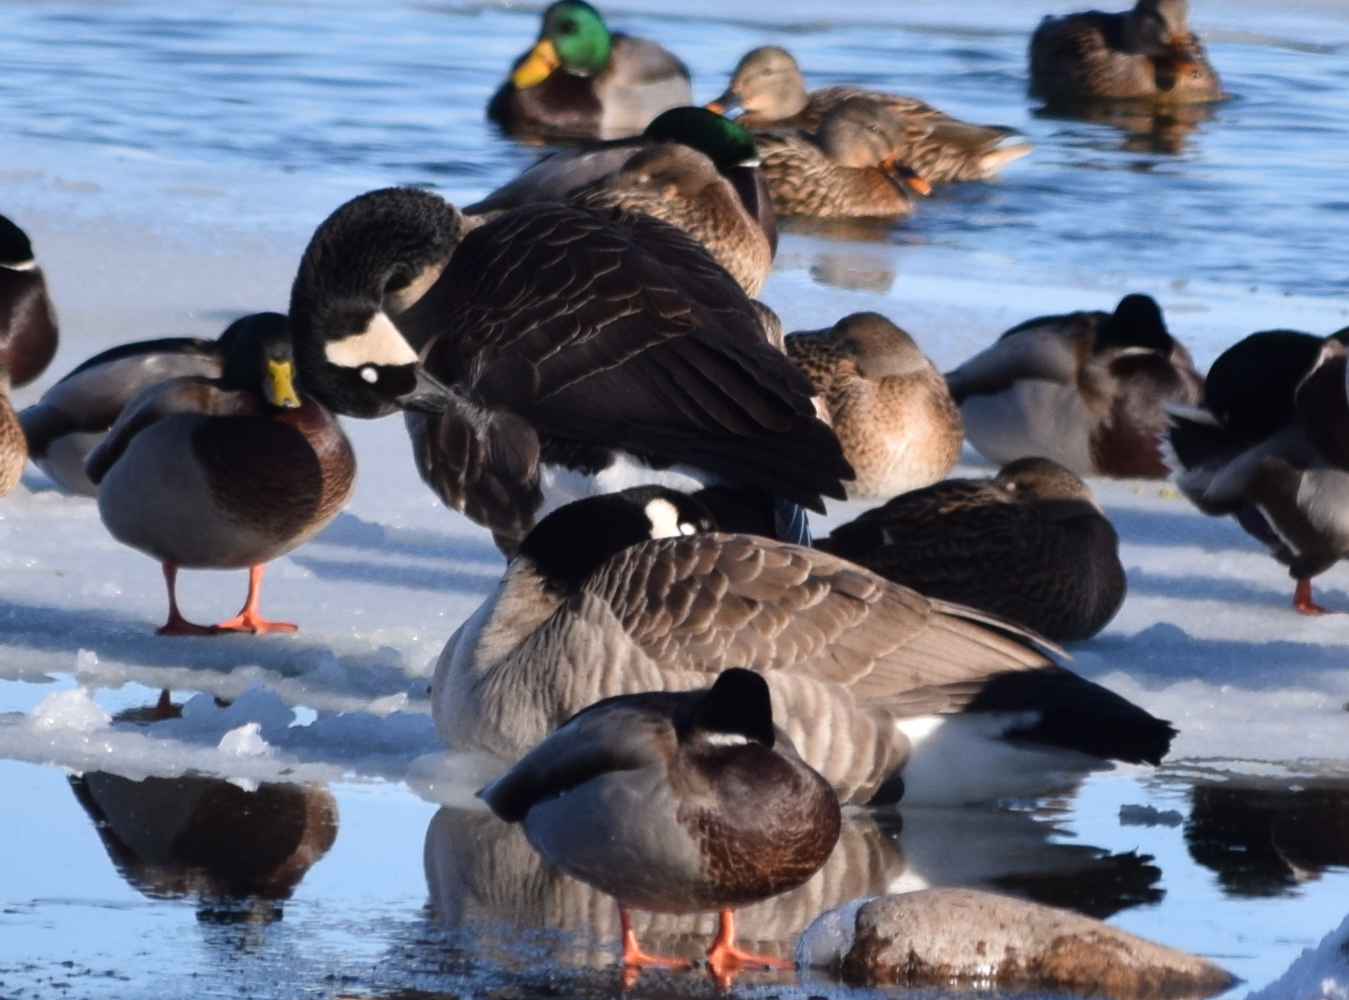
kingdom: Animalia
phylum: Chordata
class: Aves
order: Anseriformes
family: Anatidae
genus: Branta
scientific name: Branta canadensis
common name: Canada goose
